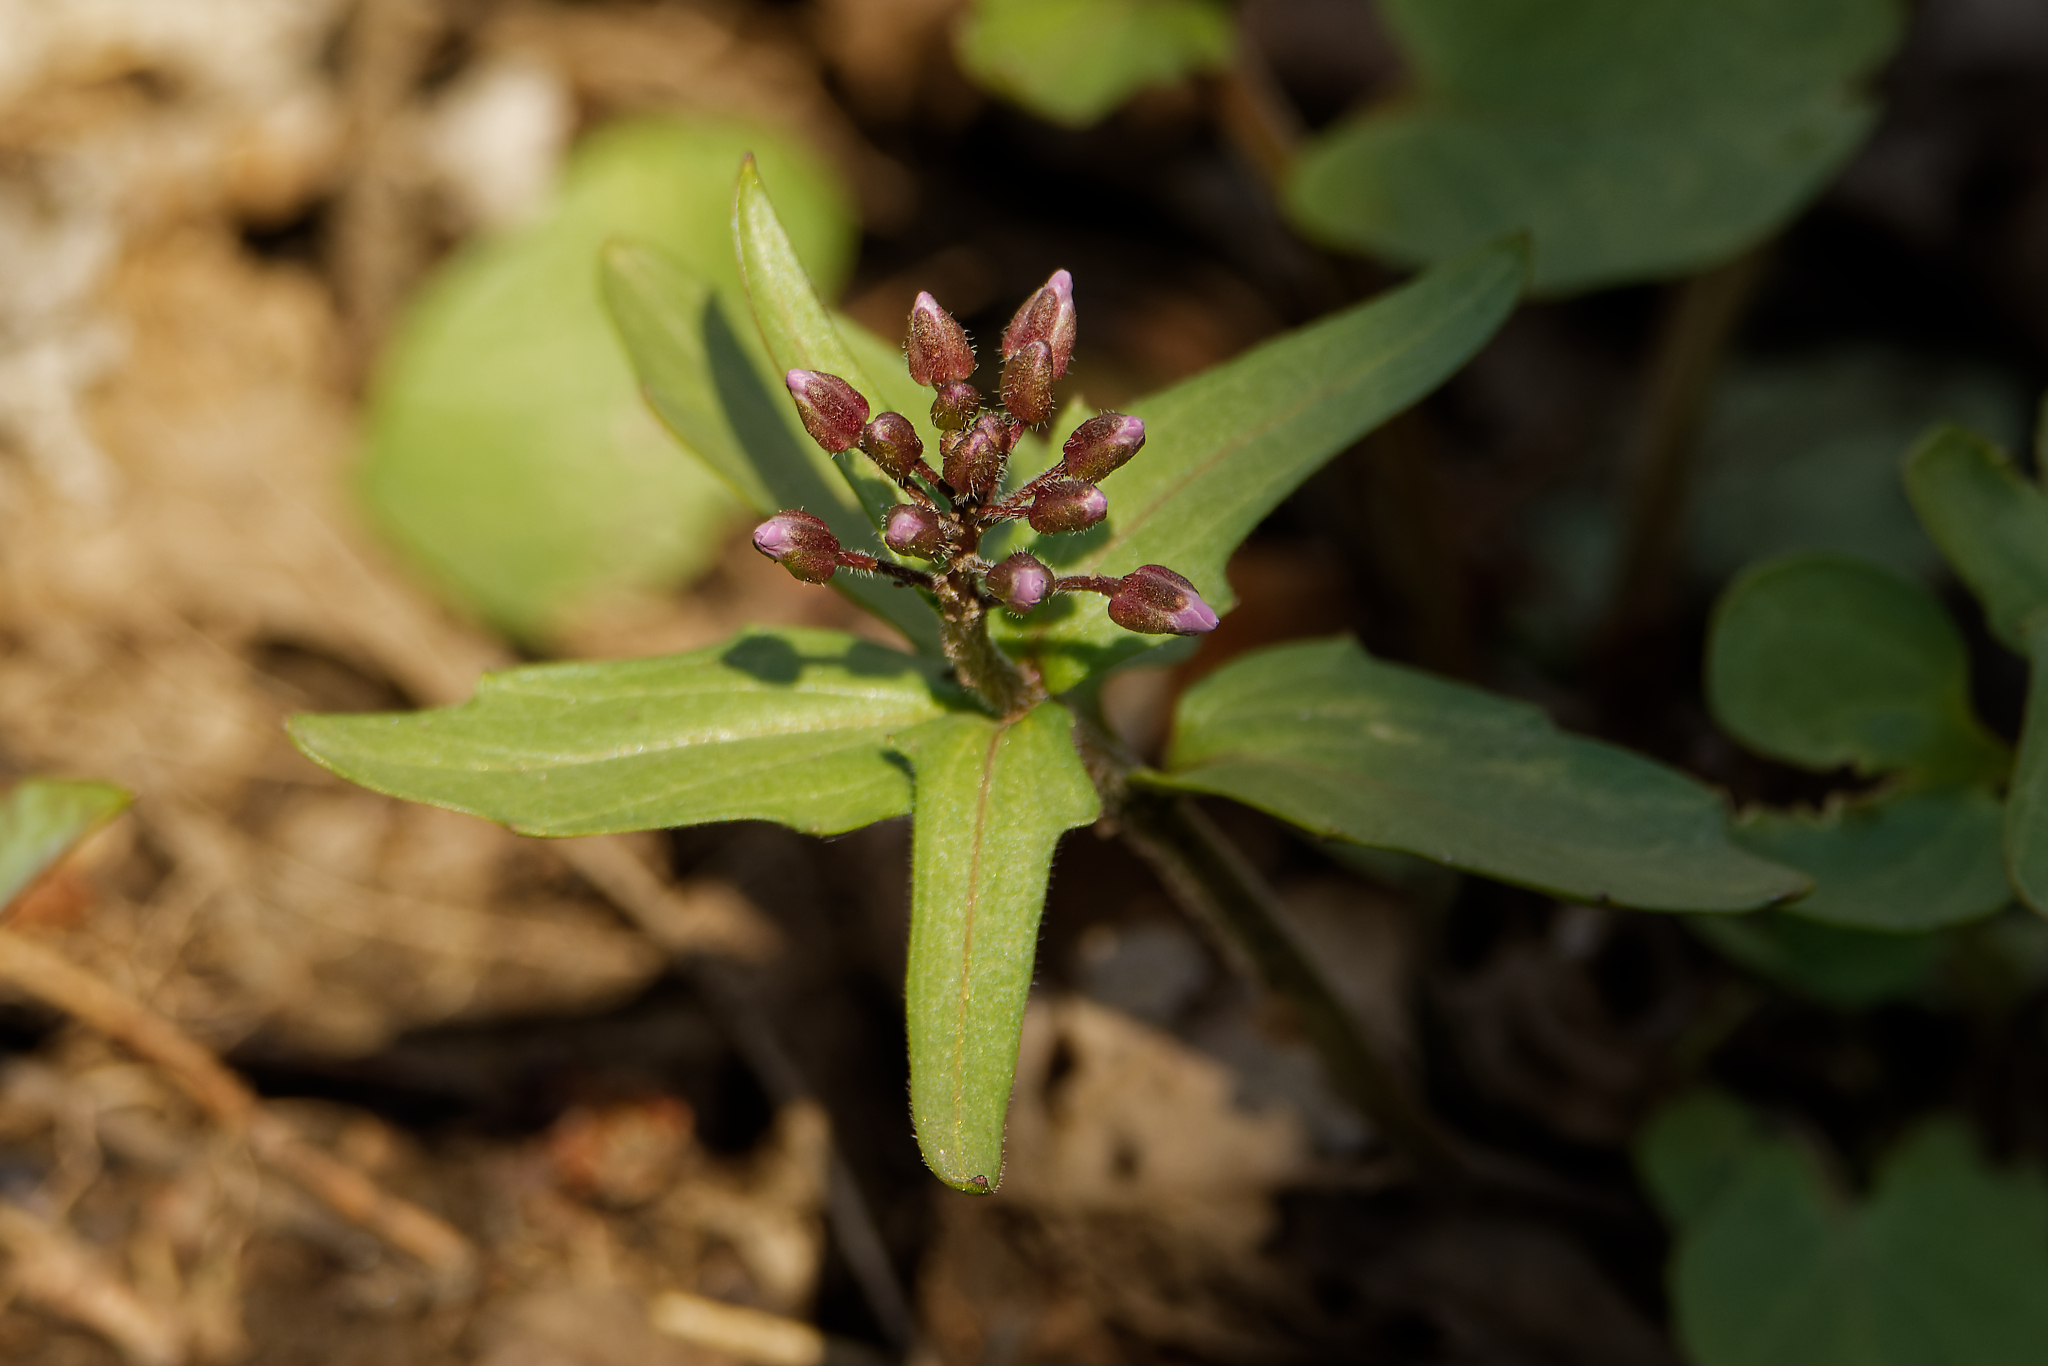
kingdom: Plantae
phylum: Tracheophyta
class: Magnoliopsida
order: Brassicales
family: Brassicaceae
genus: Cardamine
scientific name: Cardamine douglassii
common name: Purple cress
